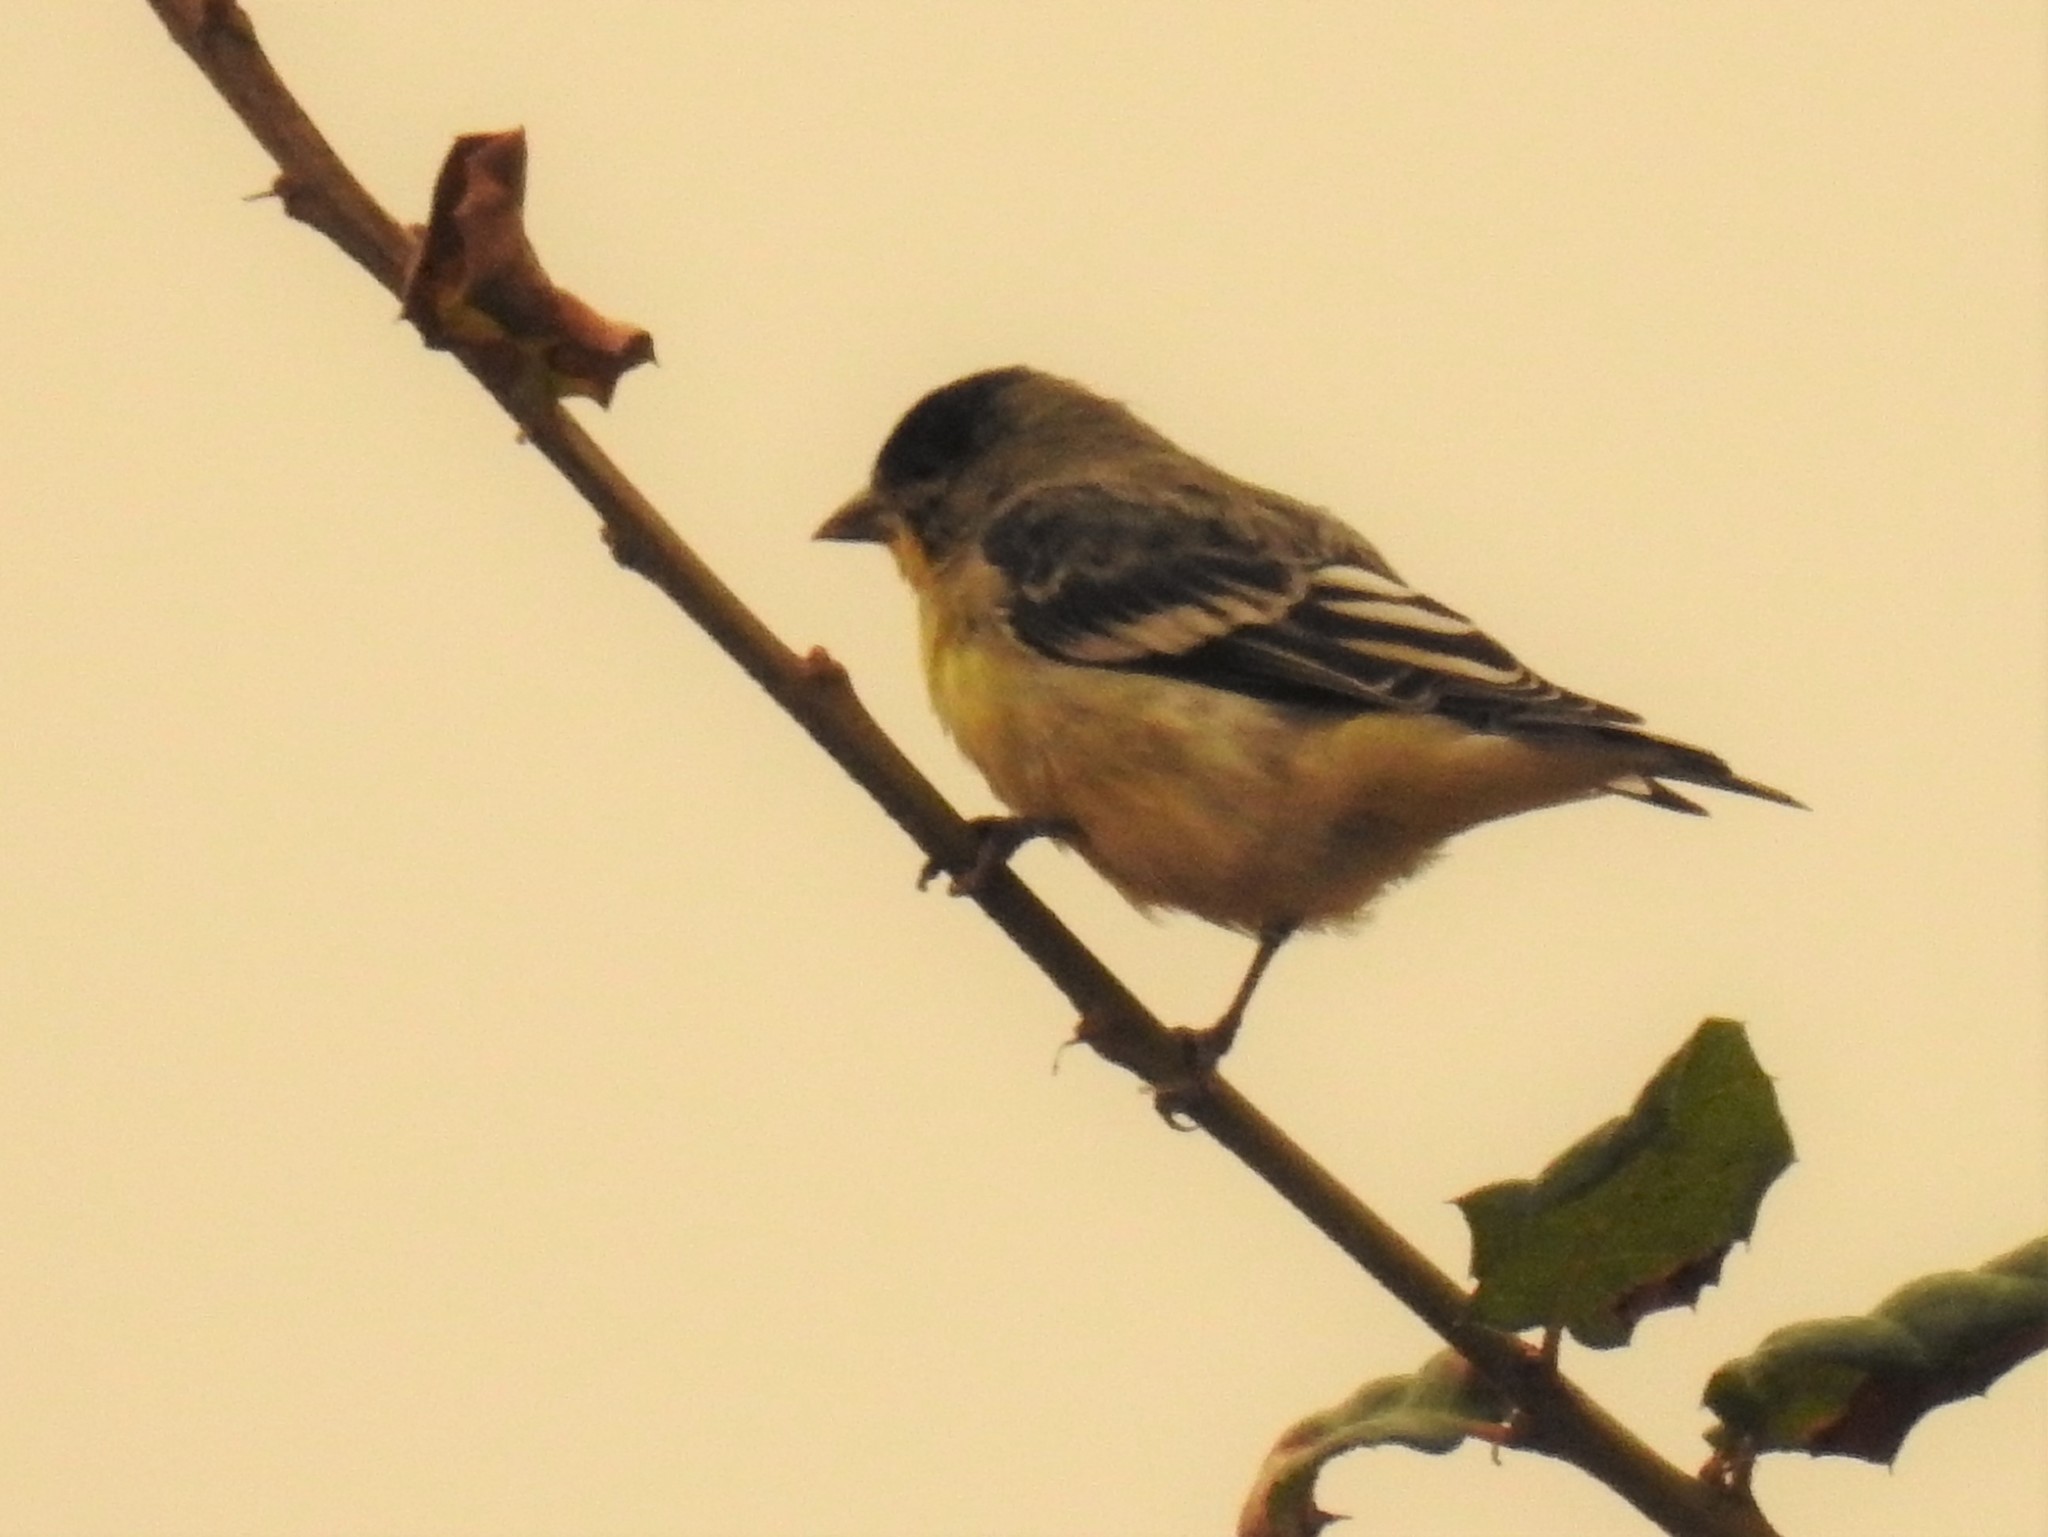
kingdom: Animalia
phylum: Chordata
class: Aves
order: Passeriformes
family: Fringillidae
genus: Spinus
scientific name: Spinus psaltria
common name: Lesser goldfinch
